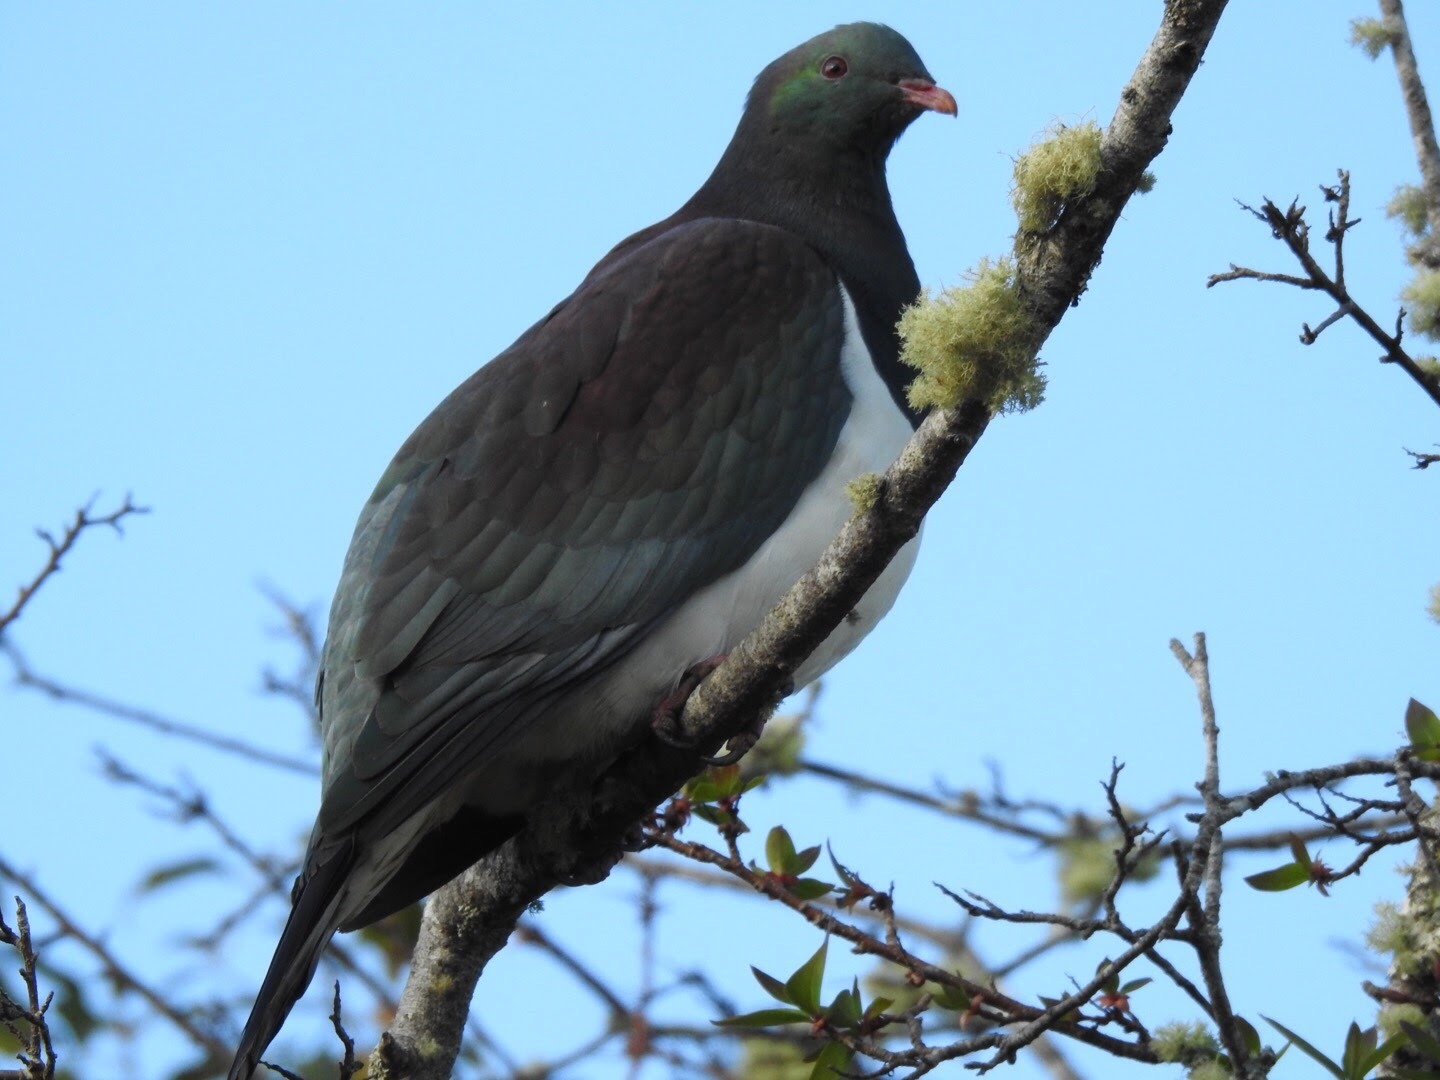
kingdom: Animalia
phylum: Chordata
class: Aves
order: Columbiformes
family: Columbidae
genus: Hemiphaga
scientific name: Hemiphaga novaeseelandiae
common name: New zealand pigeon
